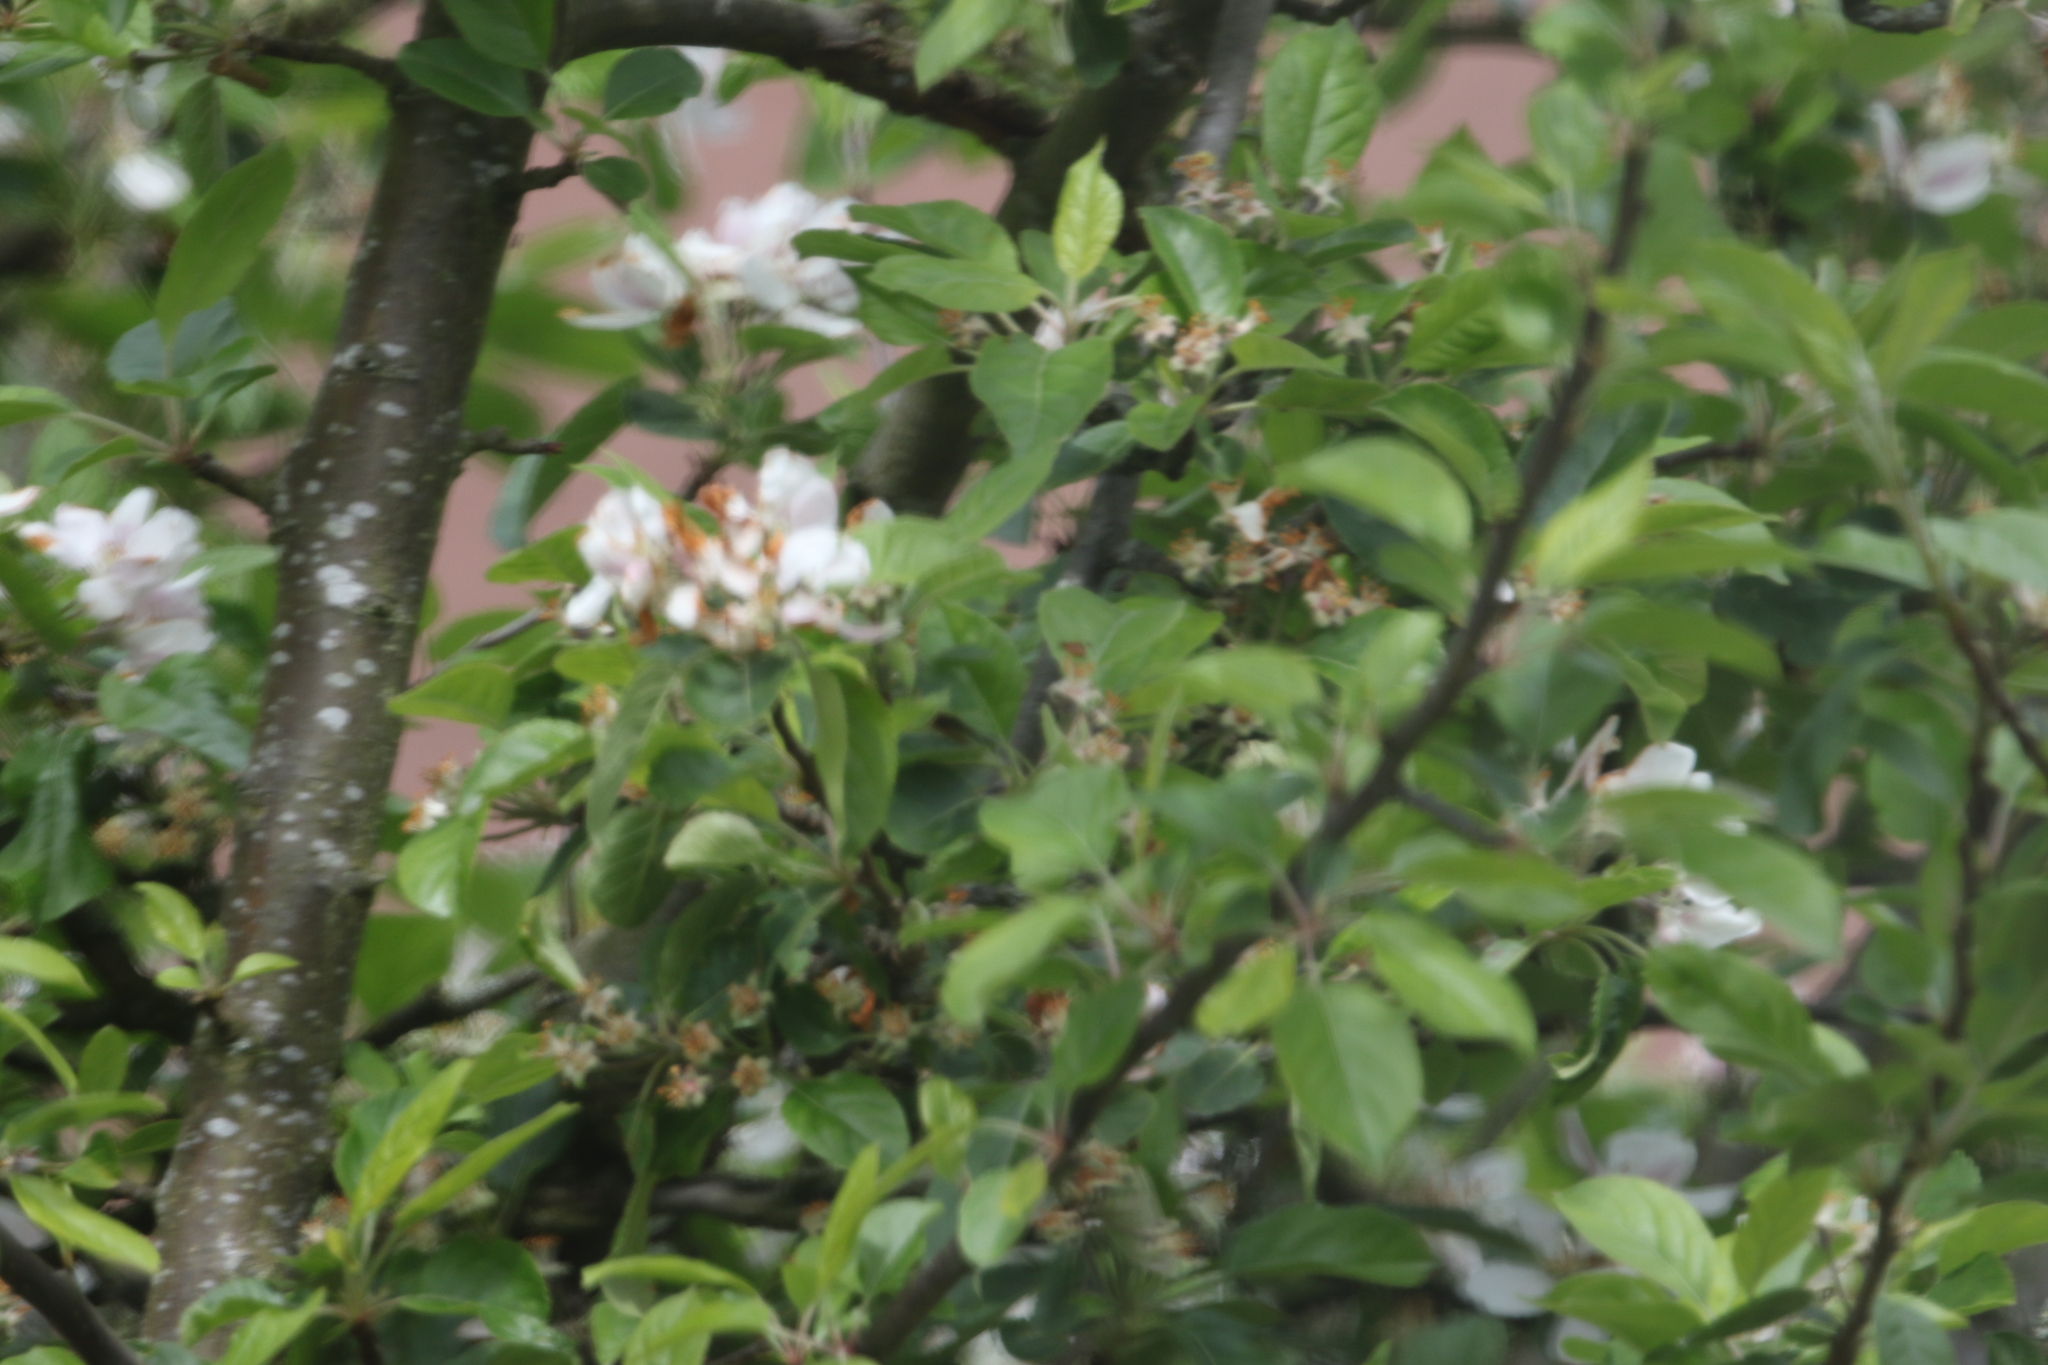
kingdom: Plantae
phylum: Tracheophyta
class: Magnoliopsida
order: Rosales
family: Rosaceae
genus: Malus
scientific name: Malus domestica
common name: Apple
